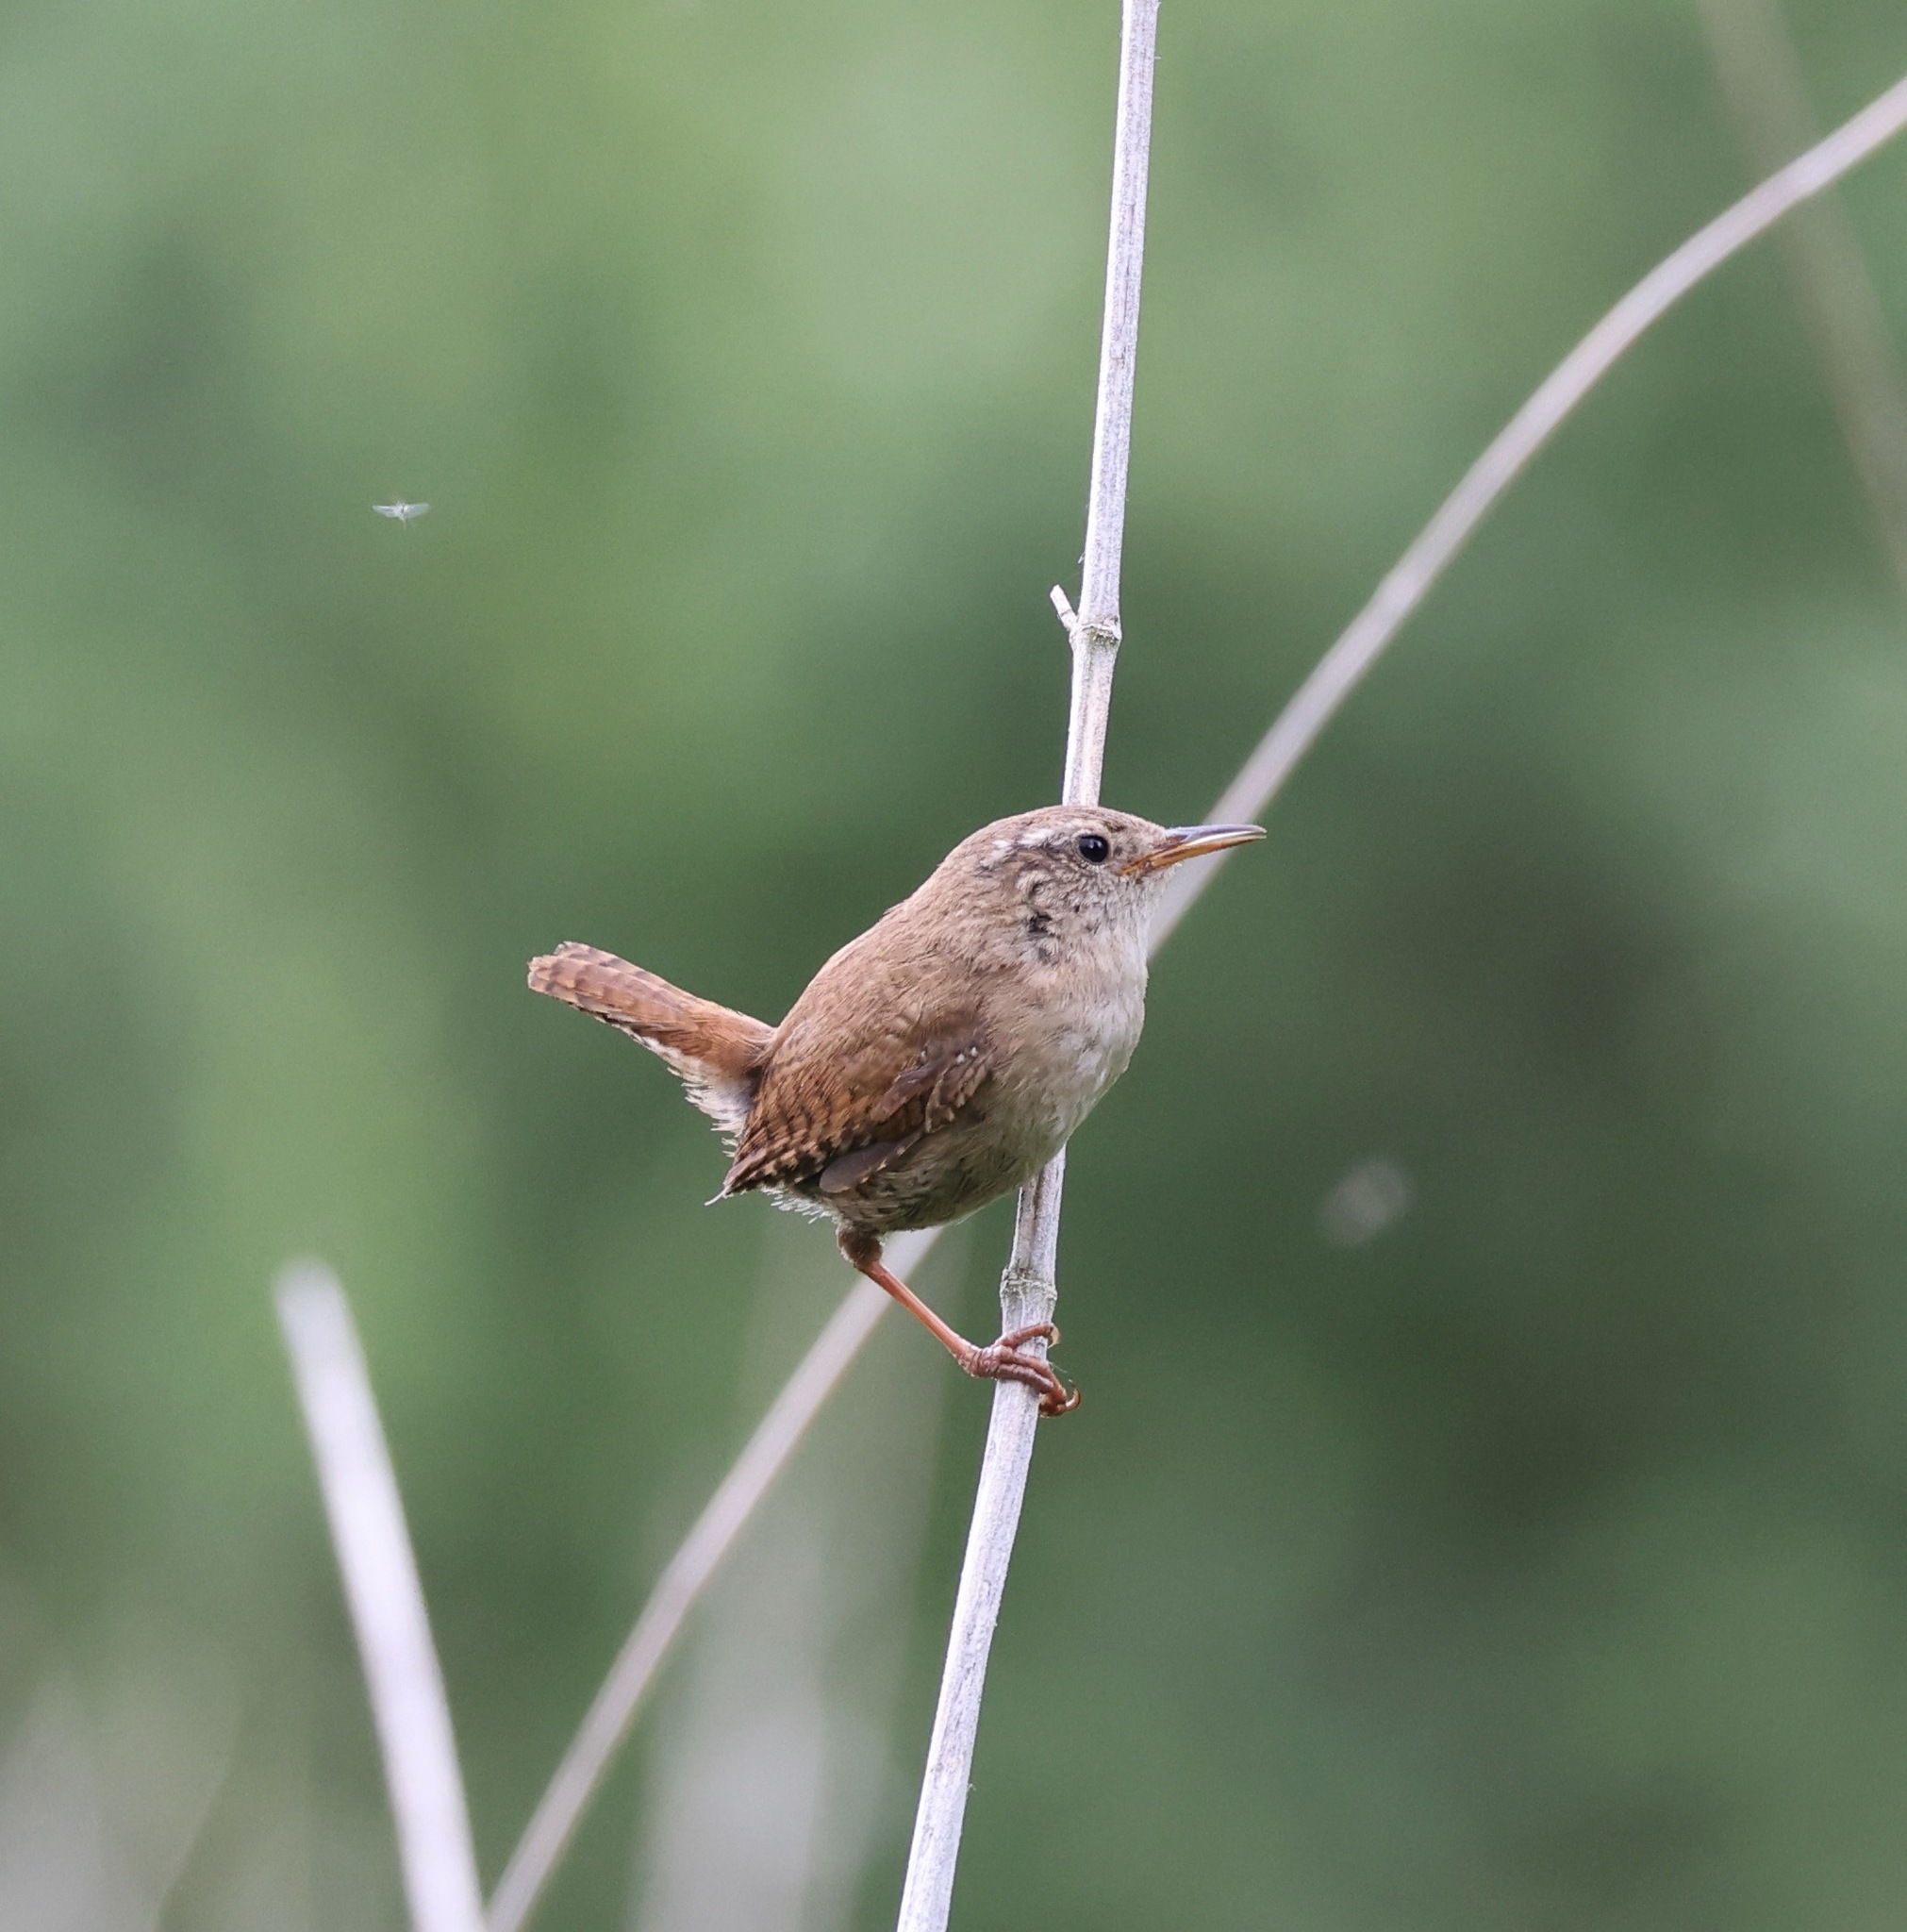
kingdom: Animalia
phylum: Chordata
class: Aves
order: Passeriformes
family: Troglodytidae
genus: Troglodytes
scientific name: Troglodytes troglodytes
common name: Eurasian wren
